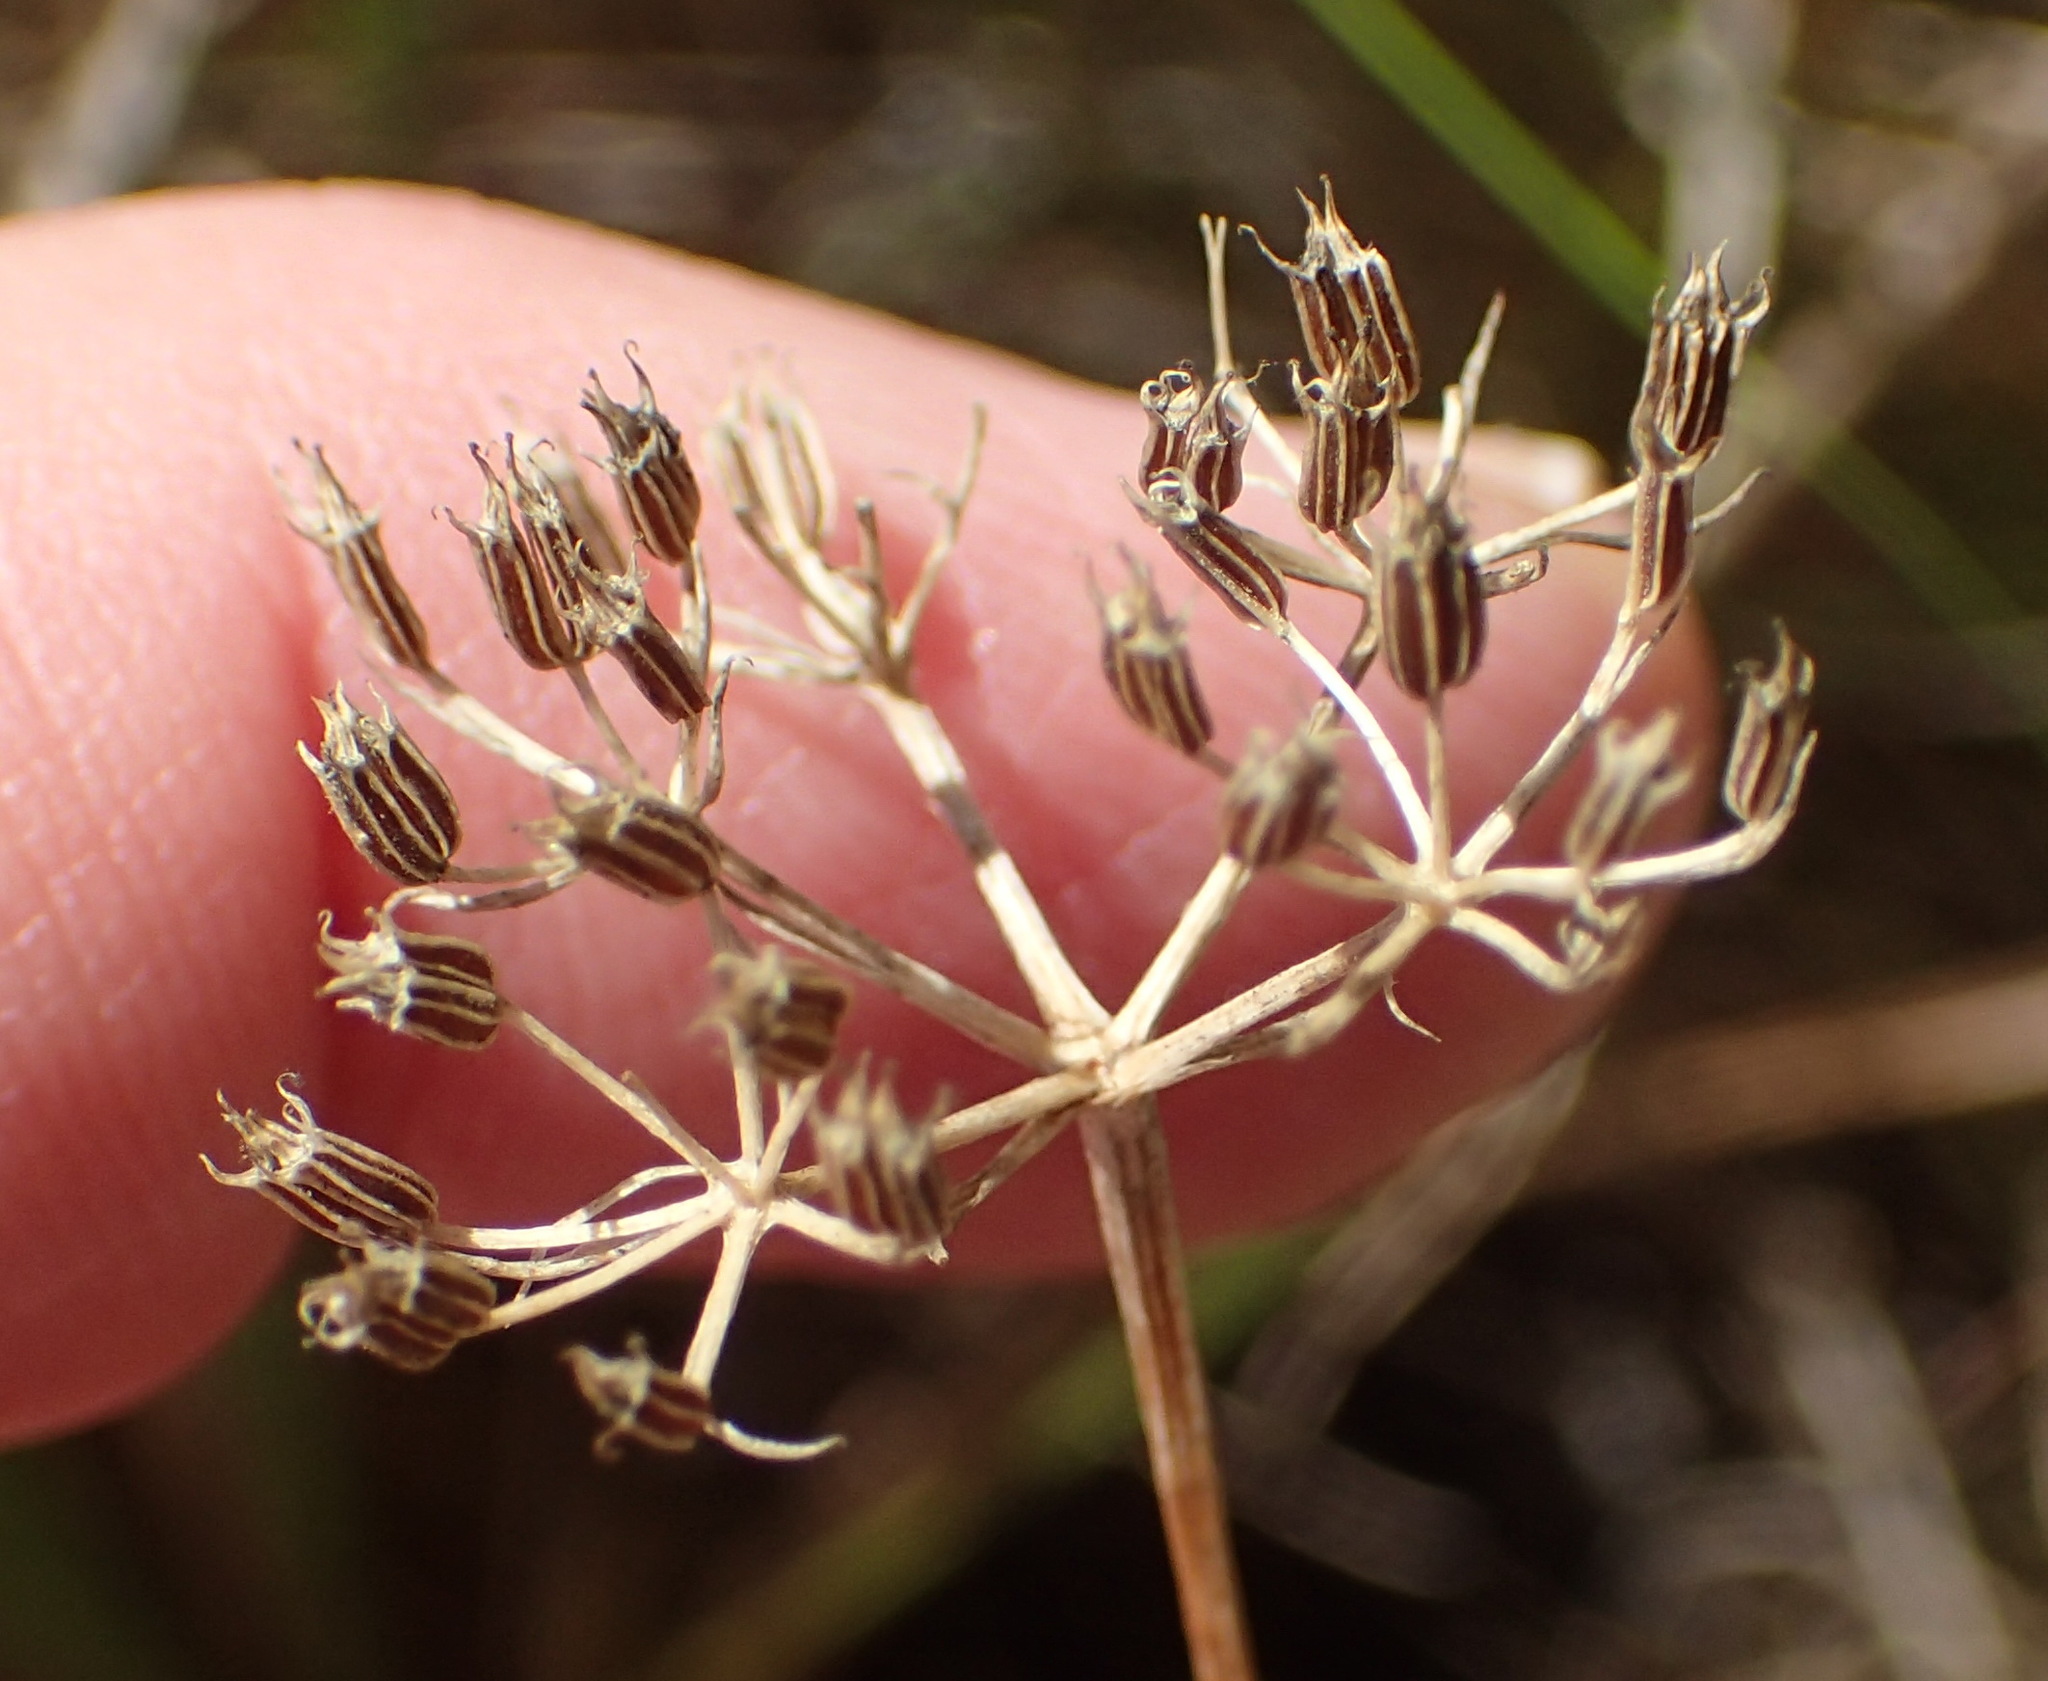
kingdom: Plantae
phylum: Tracheophyta
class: Magnoliopsida
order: Apiales
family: Apiaceae
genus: Itasina
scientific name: Itasina filifolia
